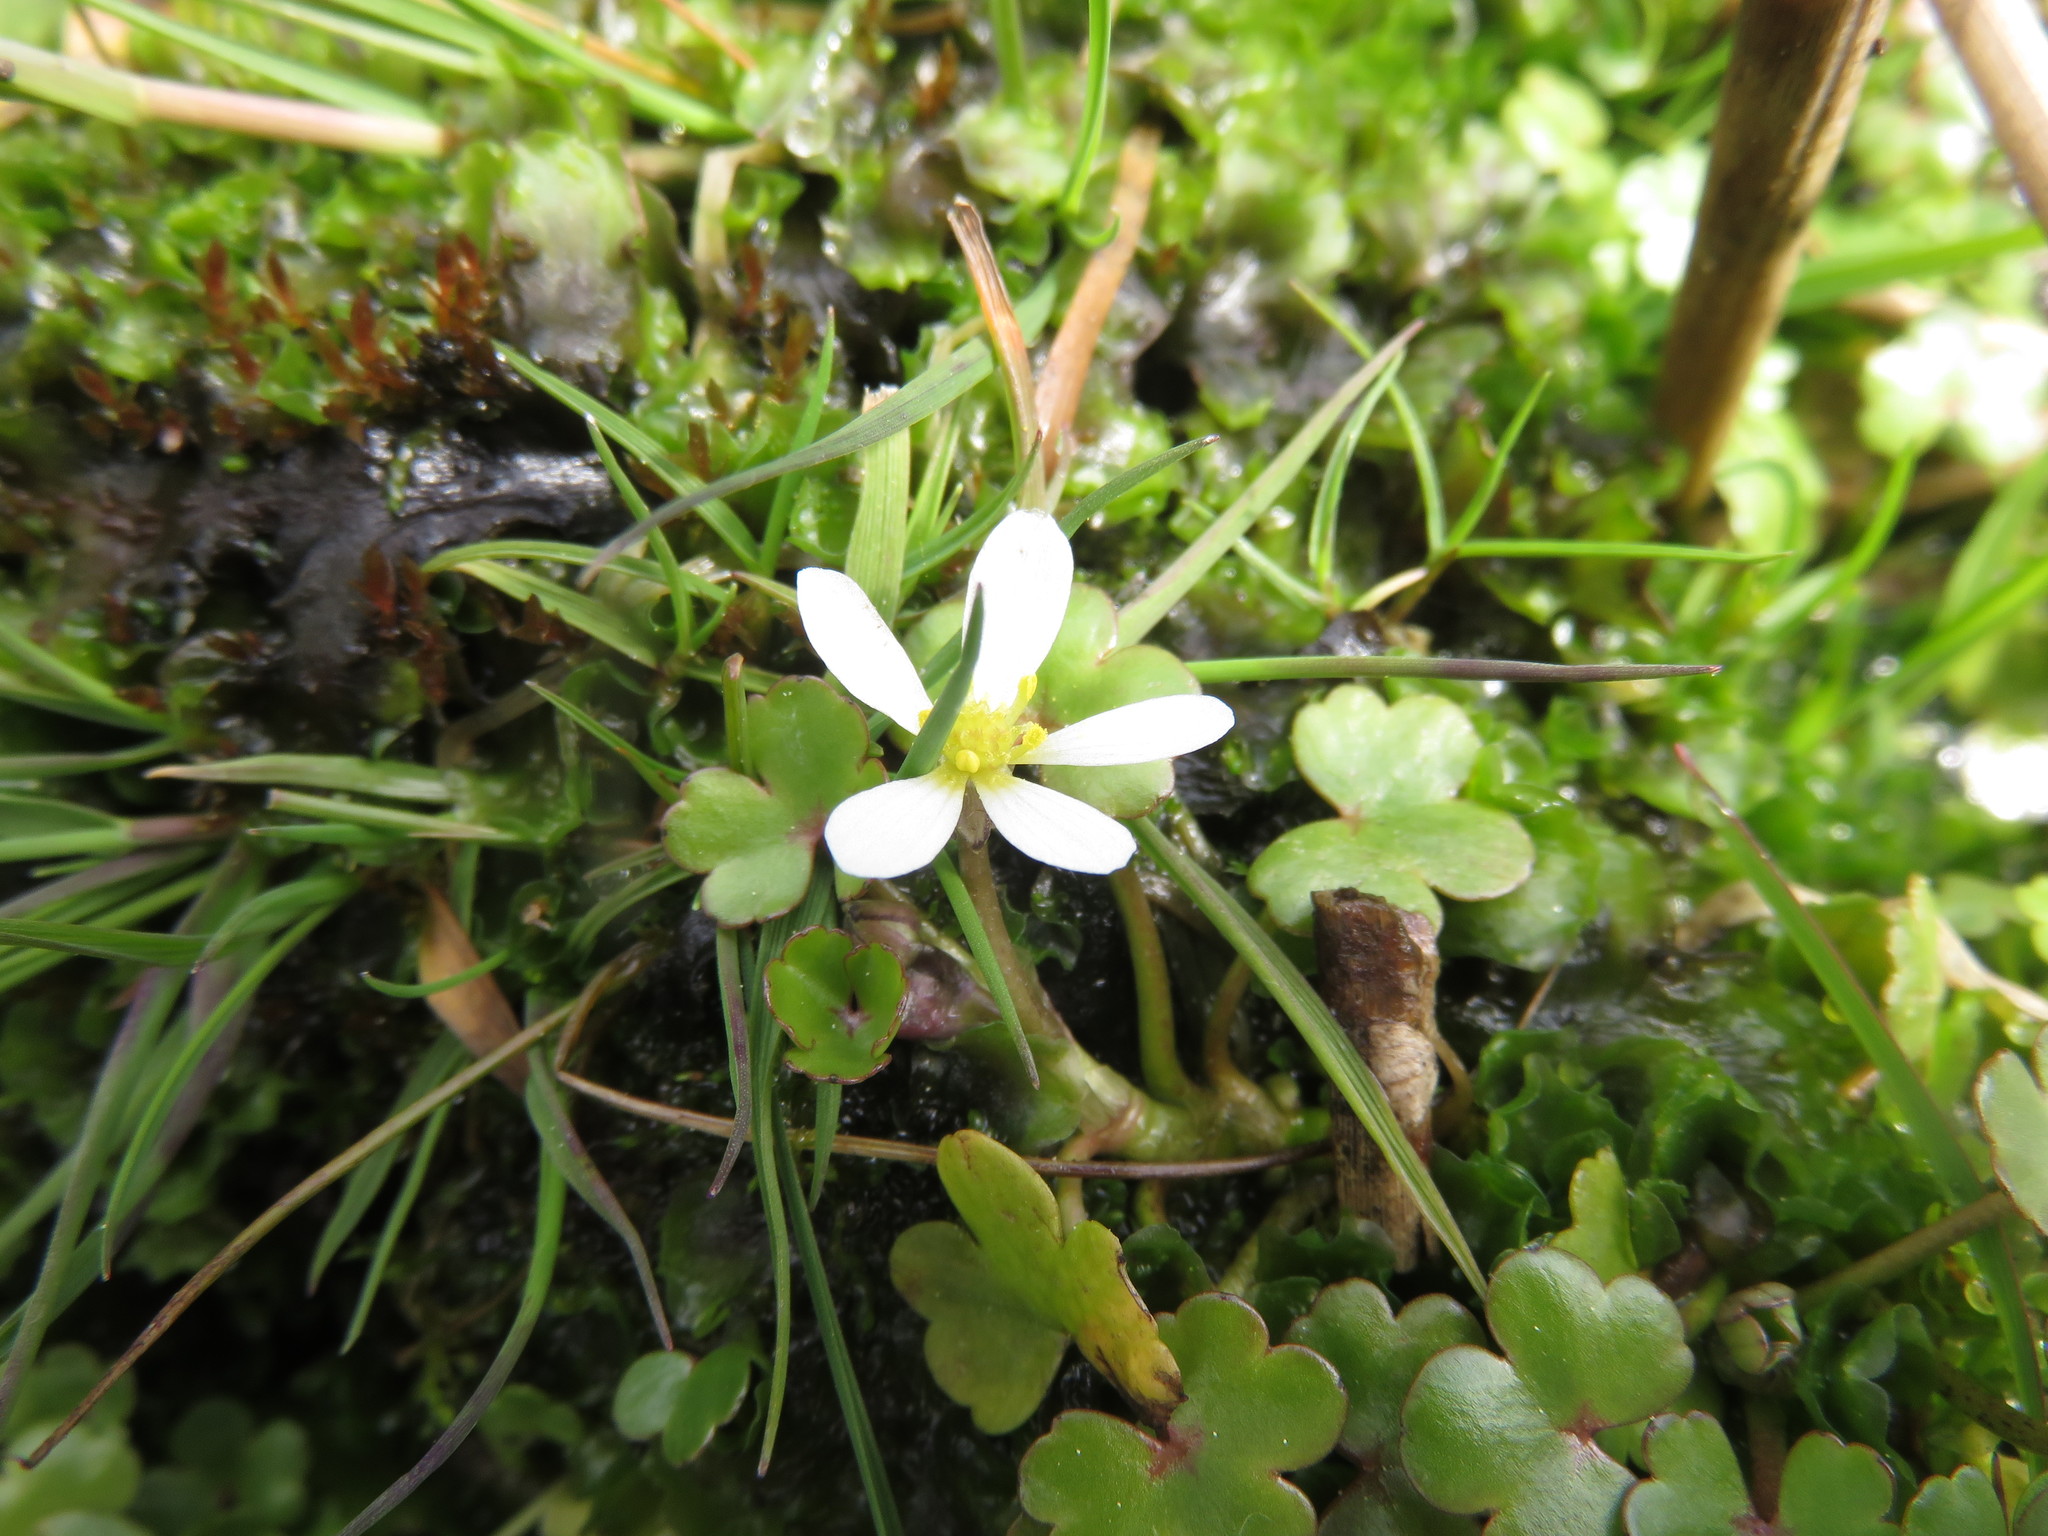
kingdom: Plantae
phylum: Tracheophyta
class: Magnoliopsida
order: Ranunculales
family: Ranunculaceae
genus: Ranunculus
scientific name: Ranunculus omiophyllus
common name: Round-leaved crowfoot
